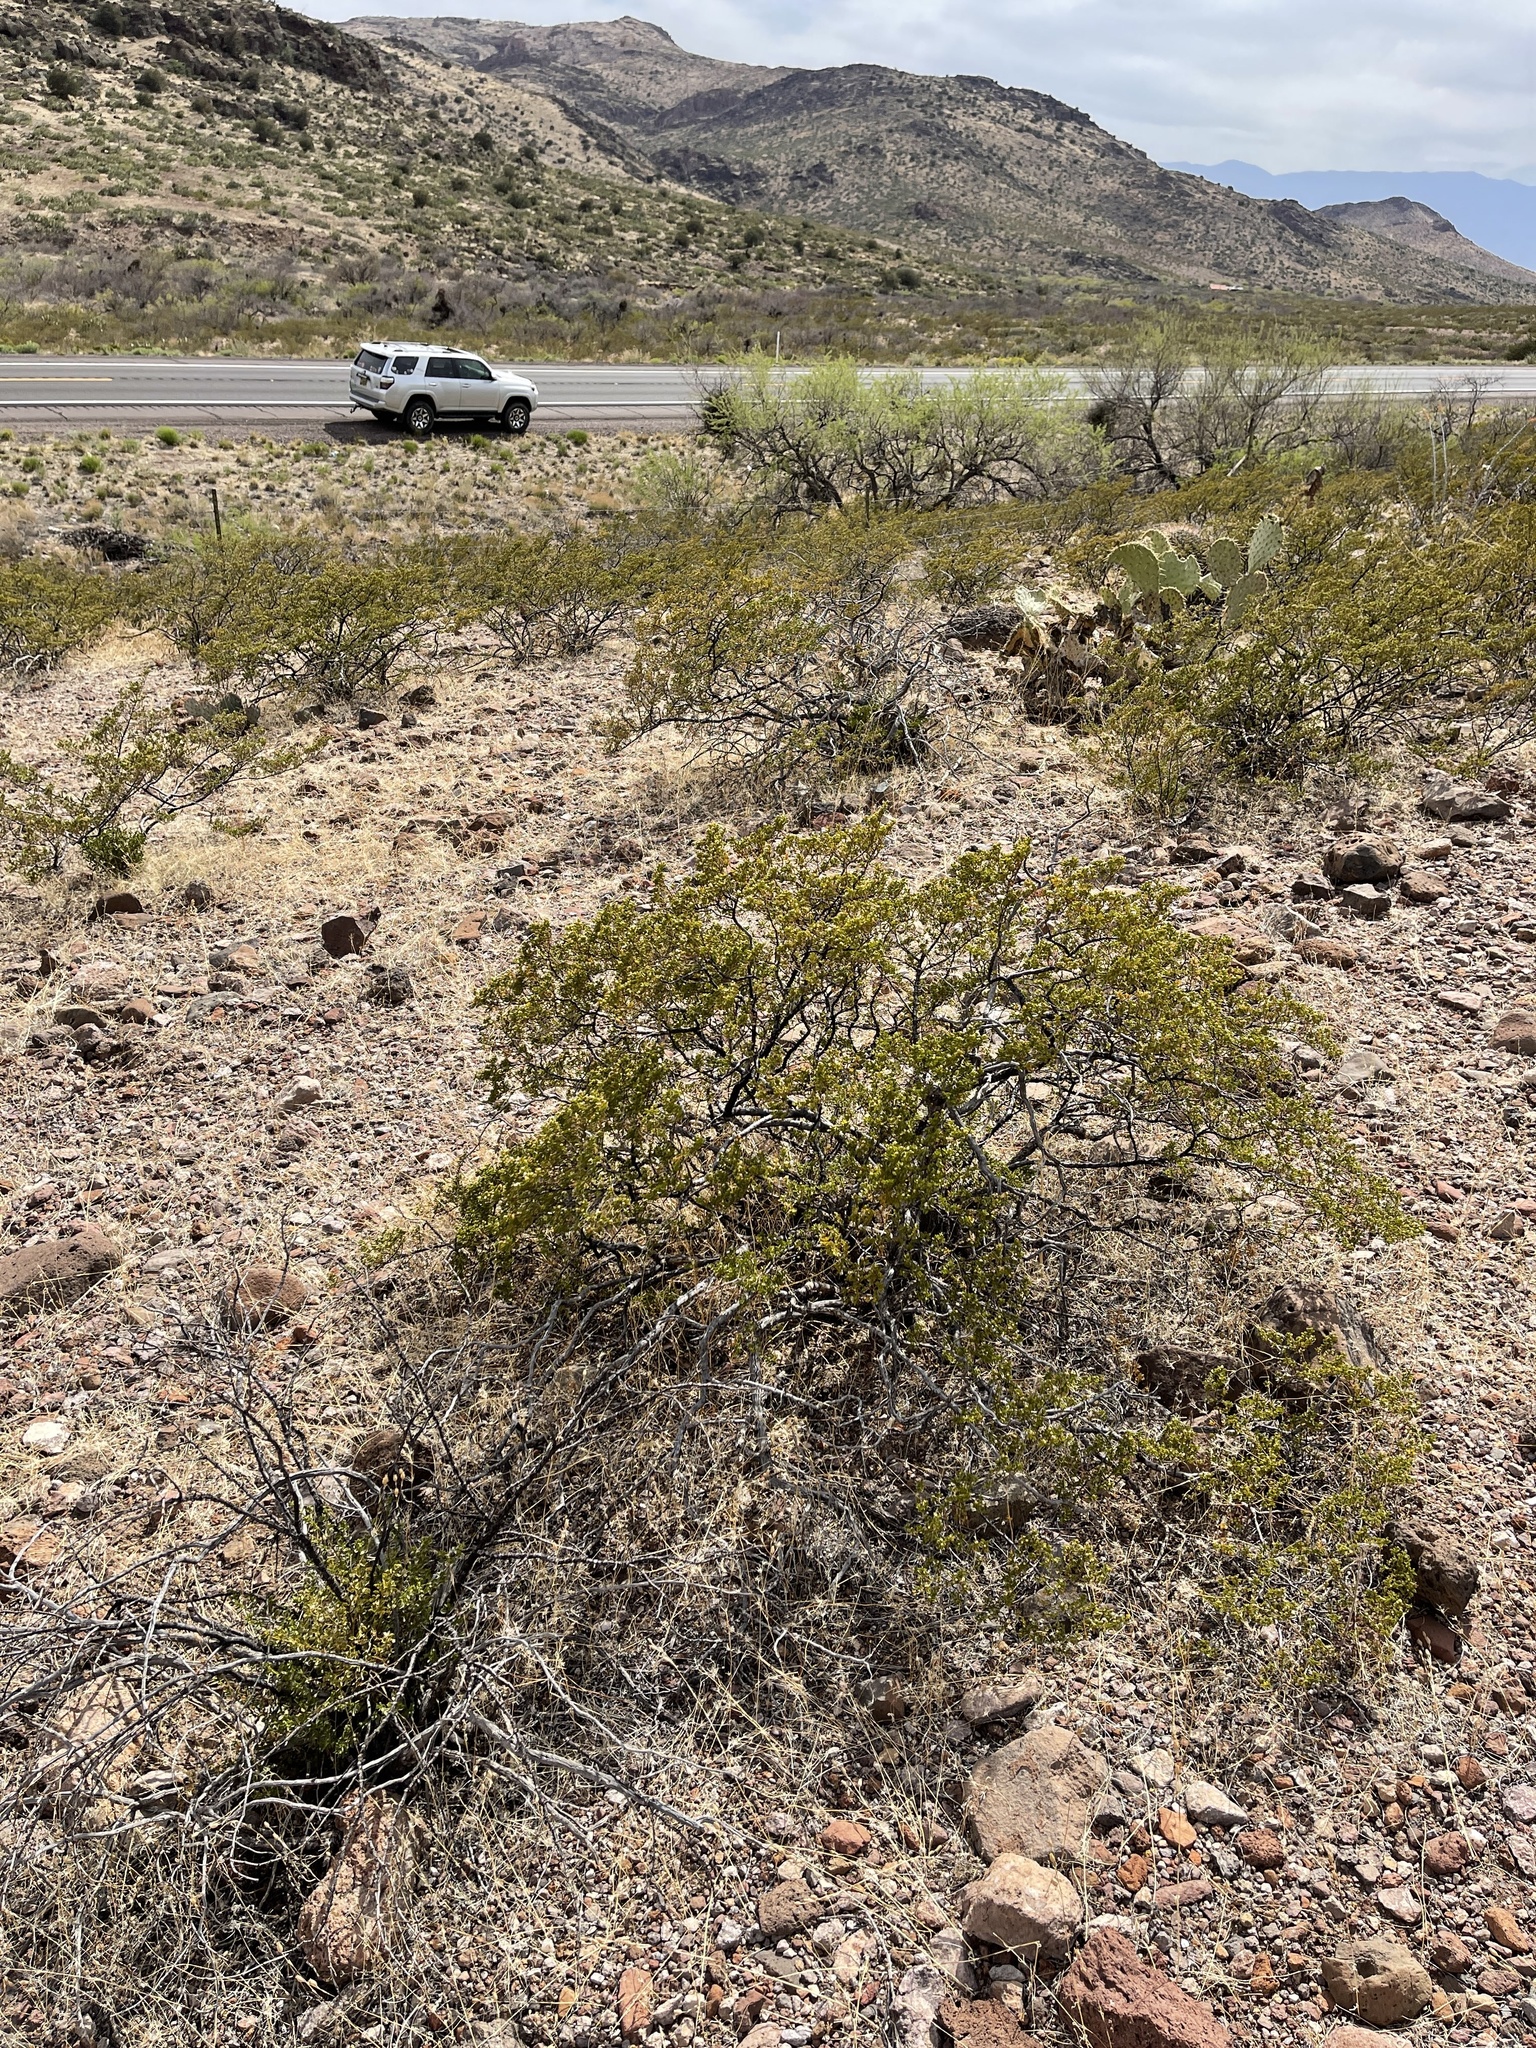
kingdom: Plantae
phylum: Tracheophyta
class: Magnoliopsida
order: Zygophyllales
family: Zygophyllaceae
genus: Larrea
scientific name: Larrea tridentata
